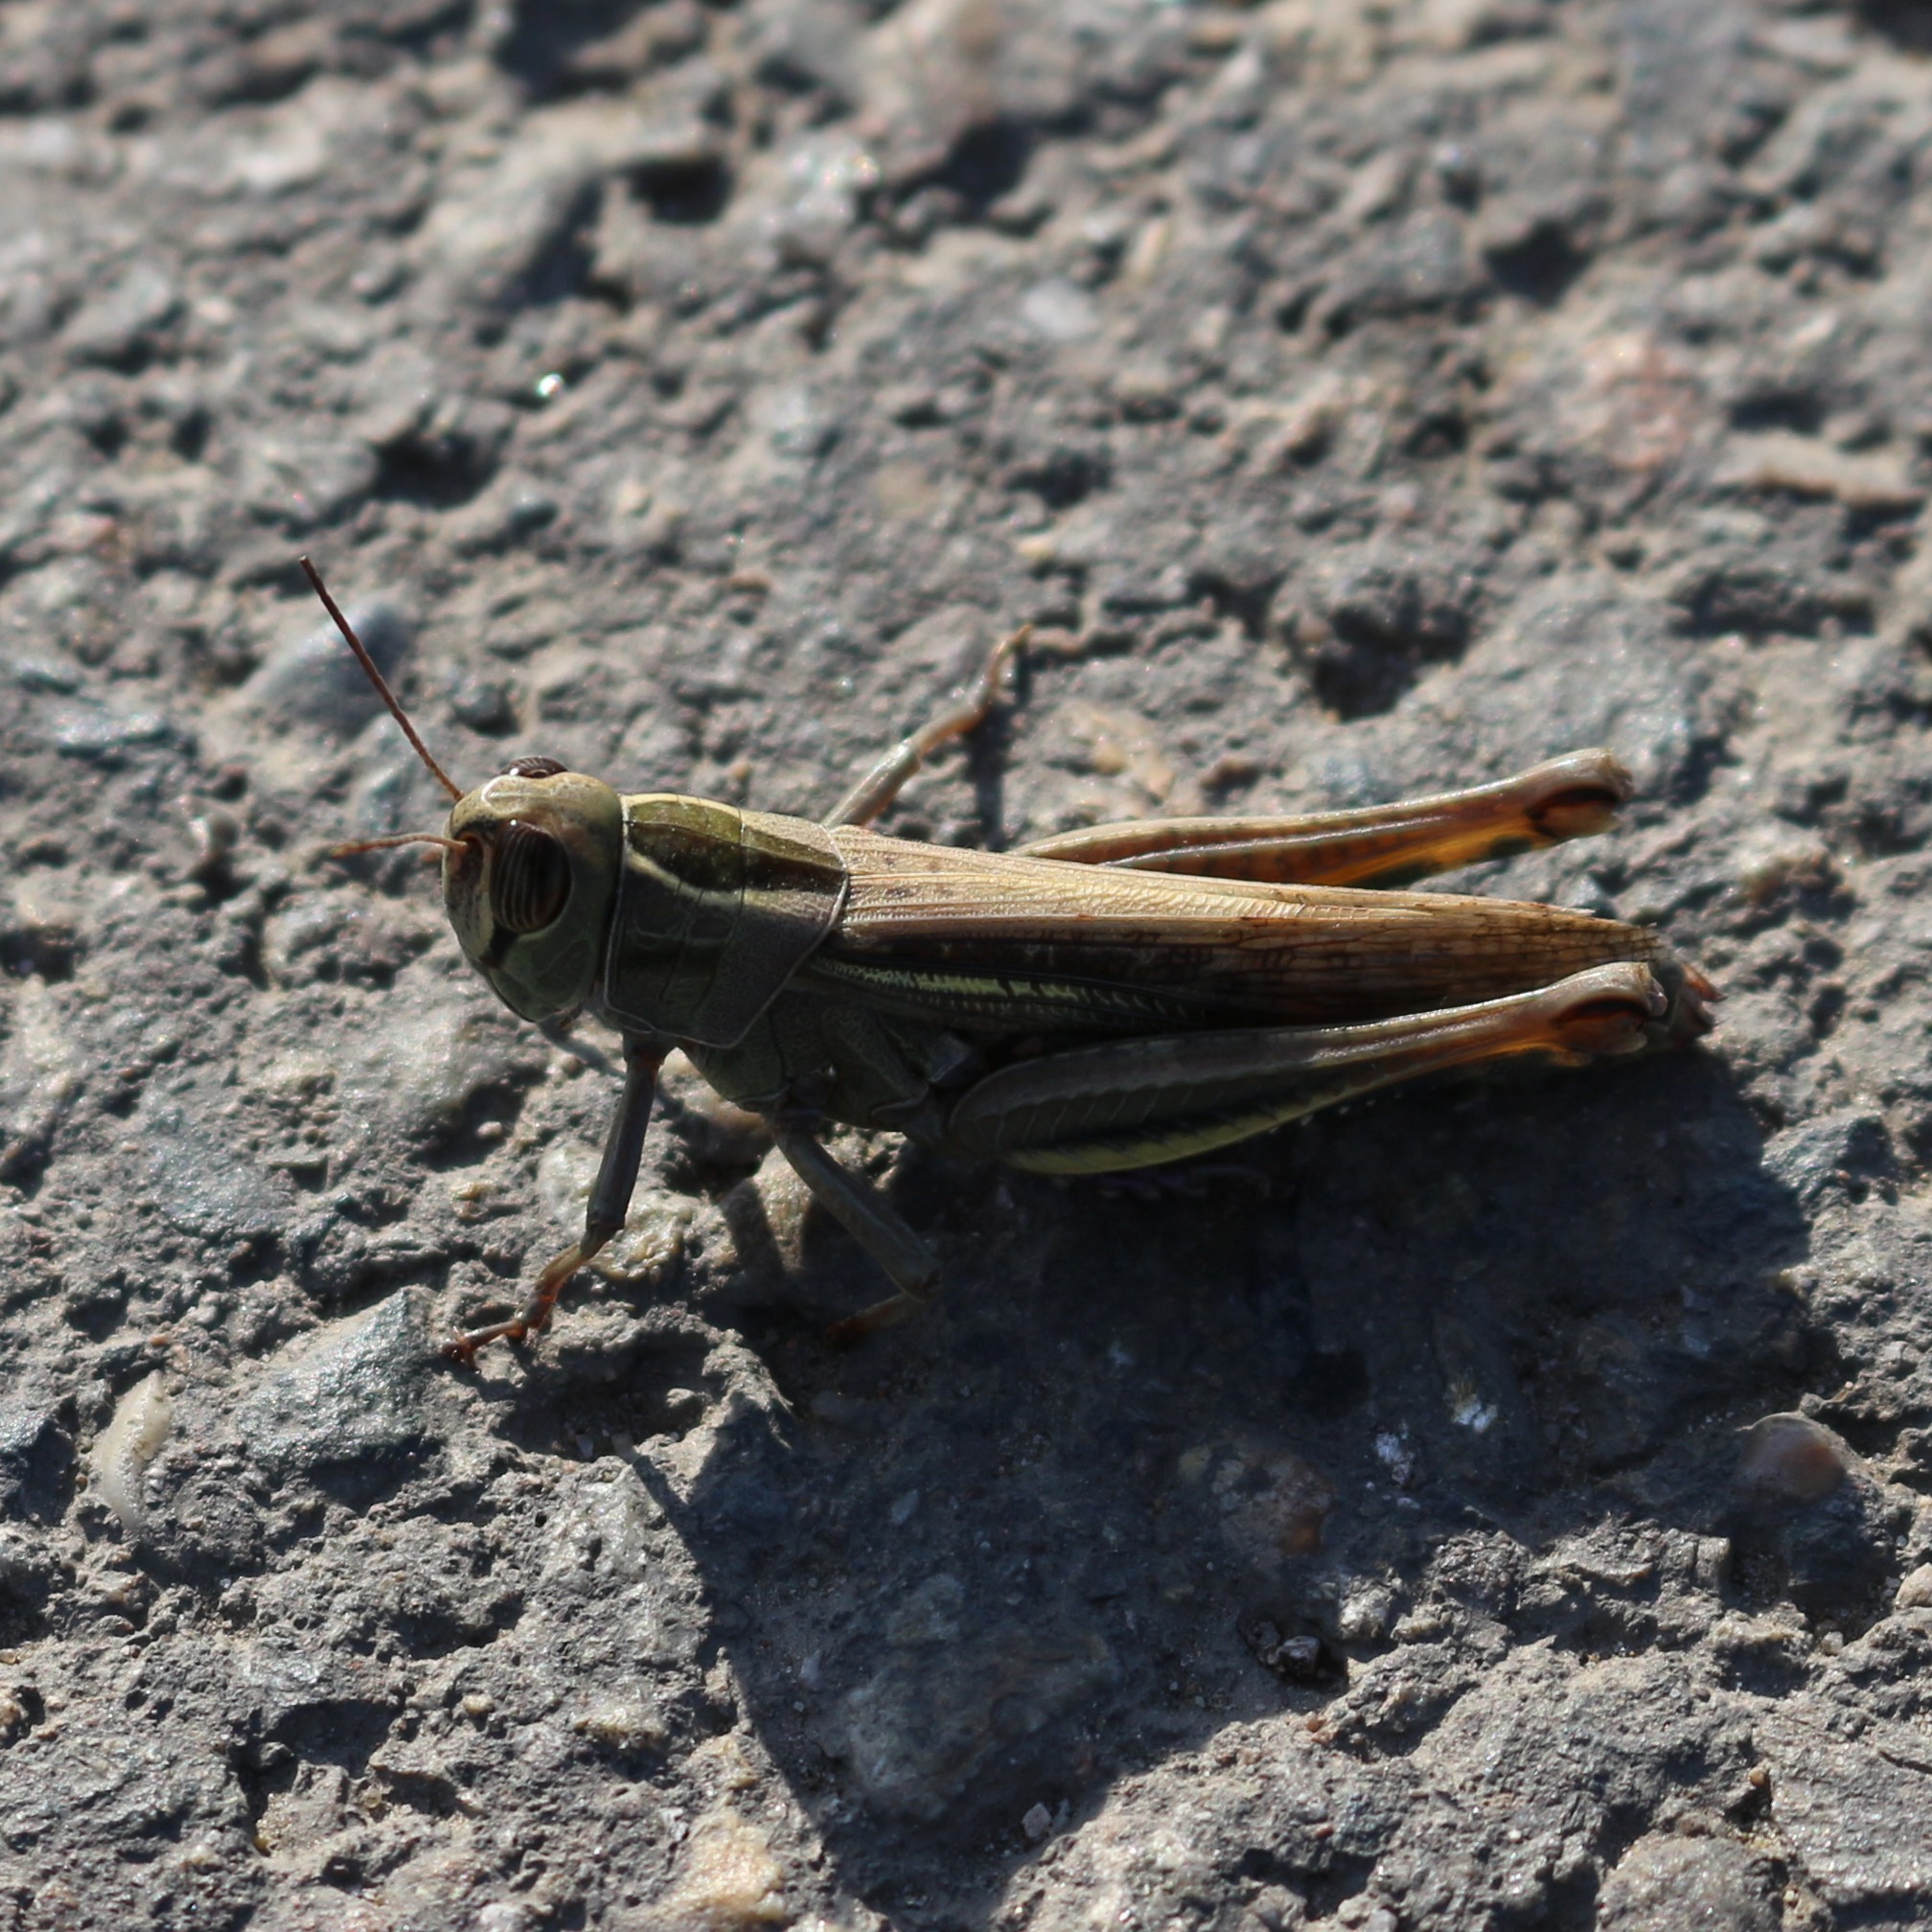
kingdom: Animalia
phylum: Arthropoda
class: Insecta
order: Orthoptera
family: Acrididae
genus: Eyprepocnemis
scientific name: Eyprepocnemis plorans
